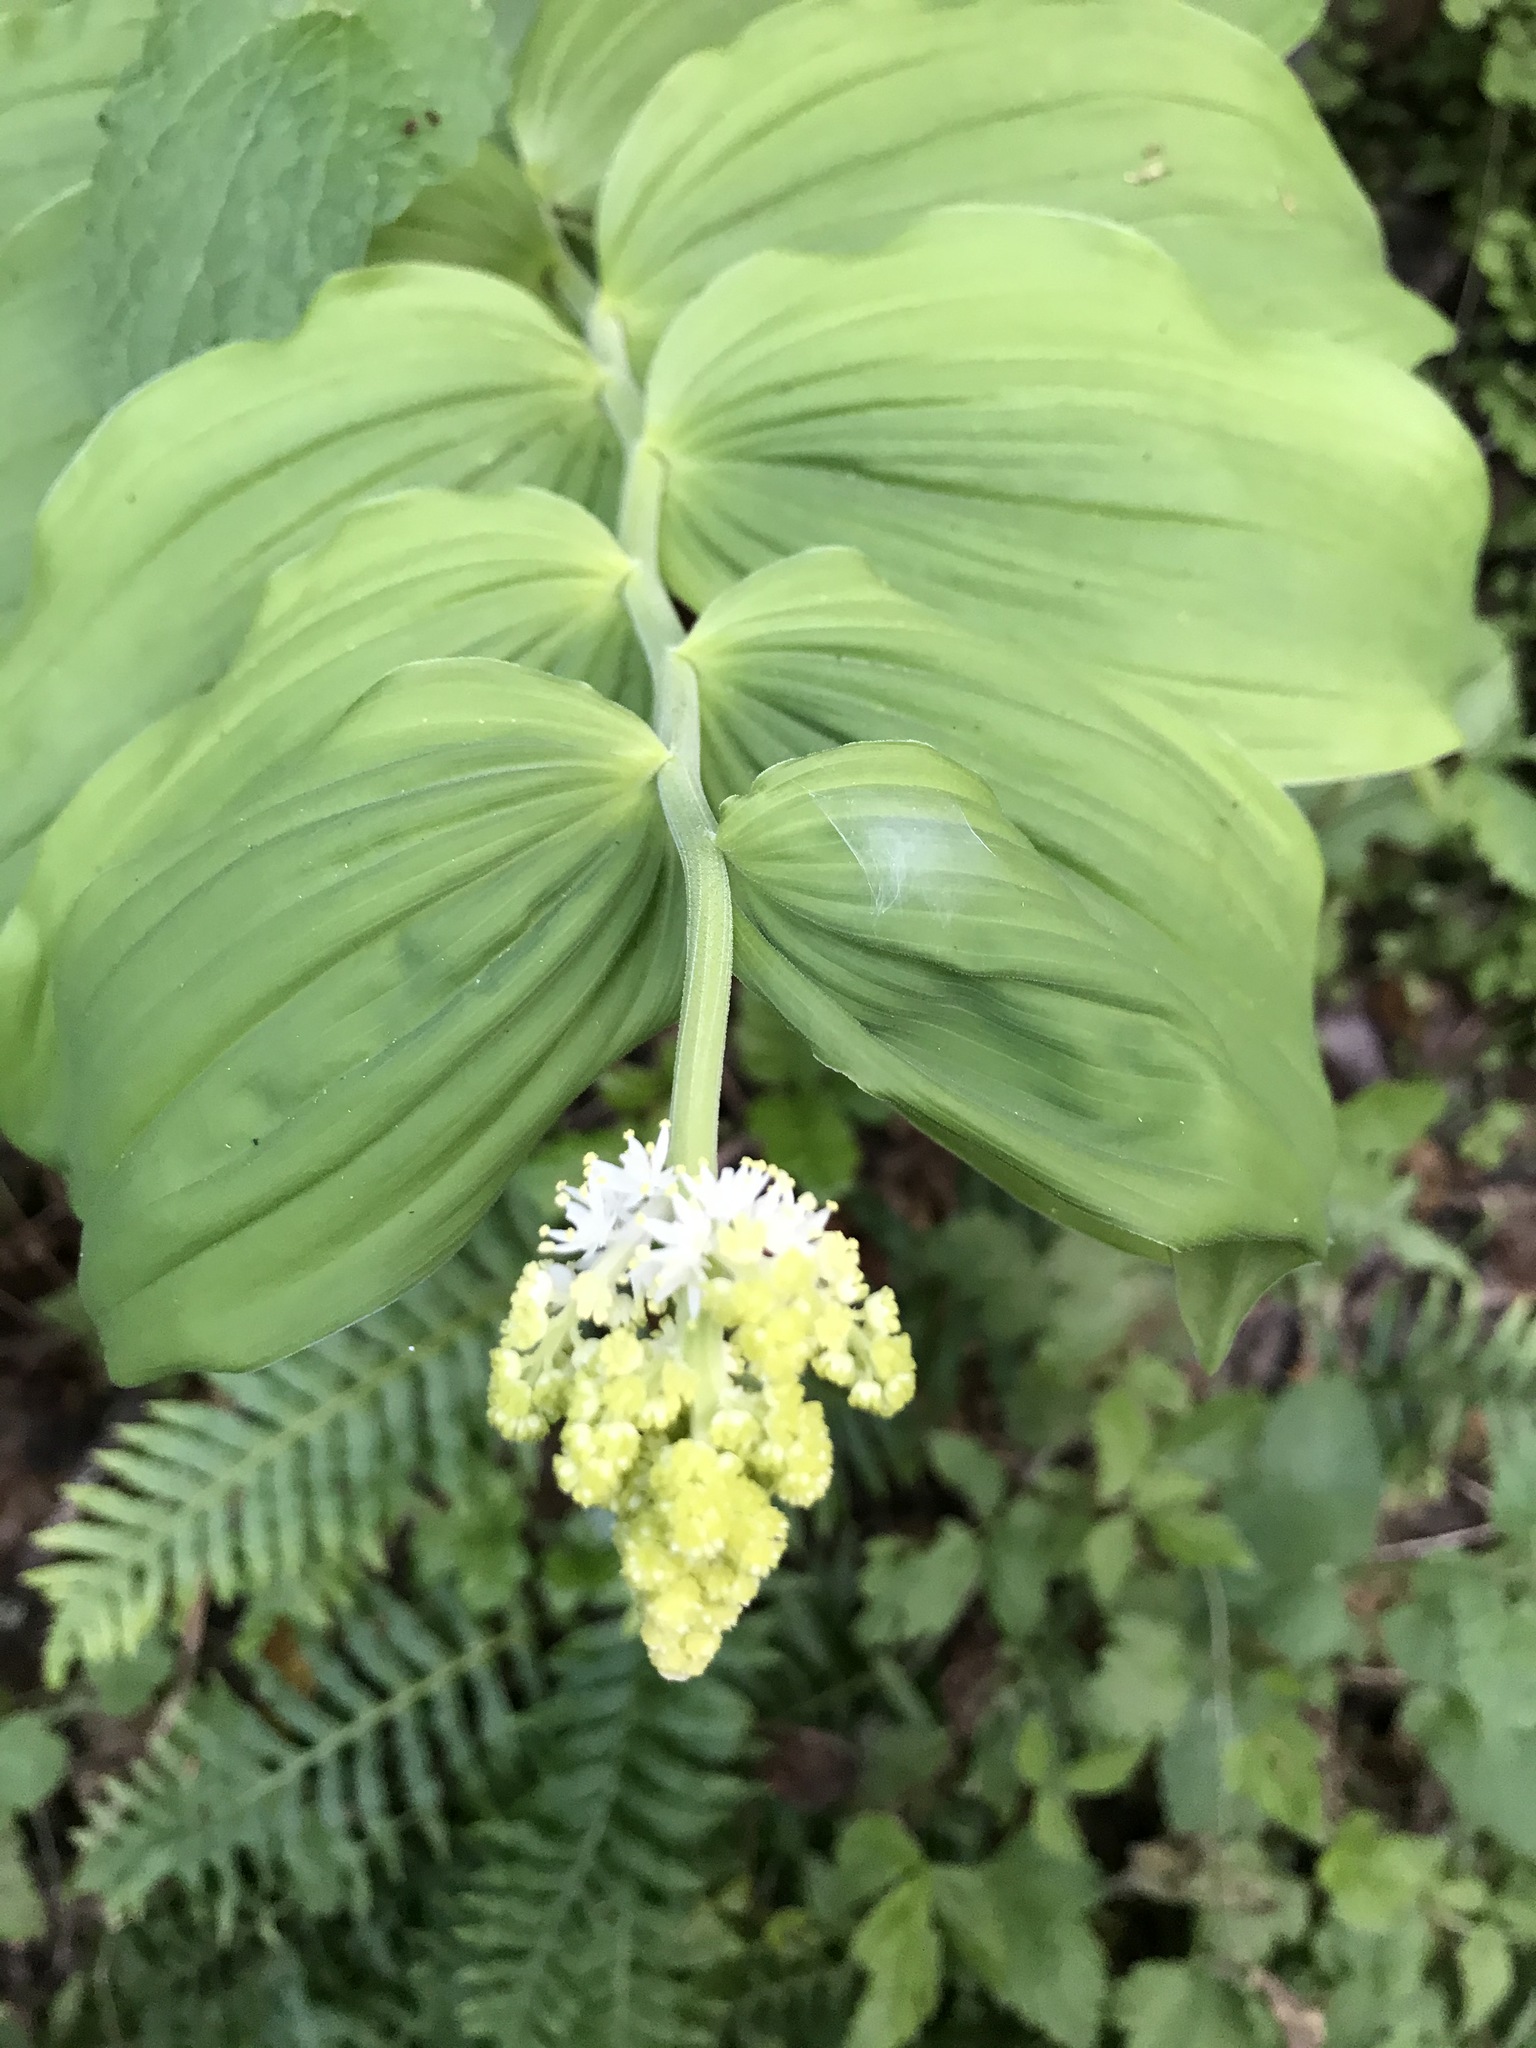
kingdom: Plantae
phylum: Tracheophyta
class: Liliopsida
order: Asparagales
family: Asparagaceae
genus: Maianthemum
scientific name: Maianthemum racemosum
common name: False spikenard
